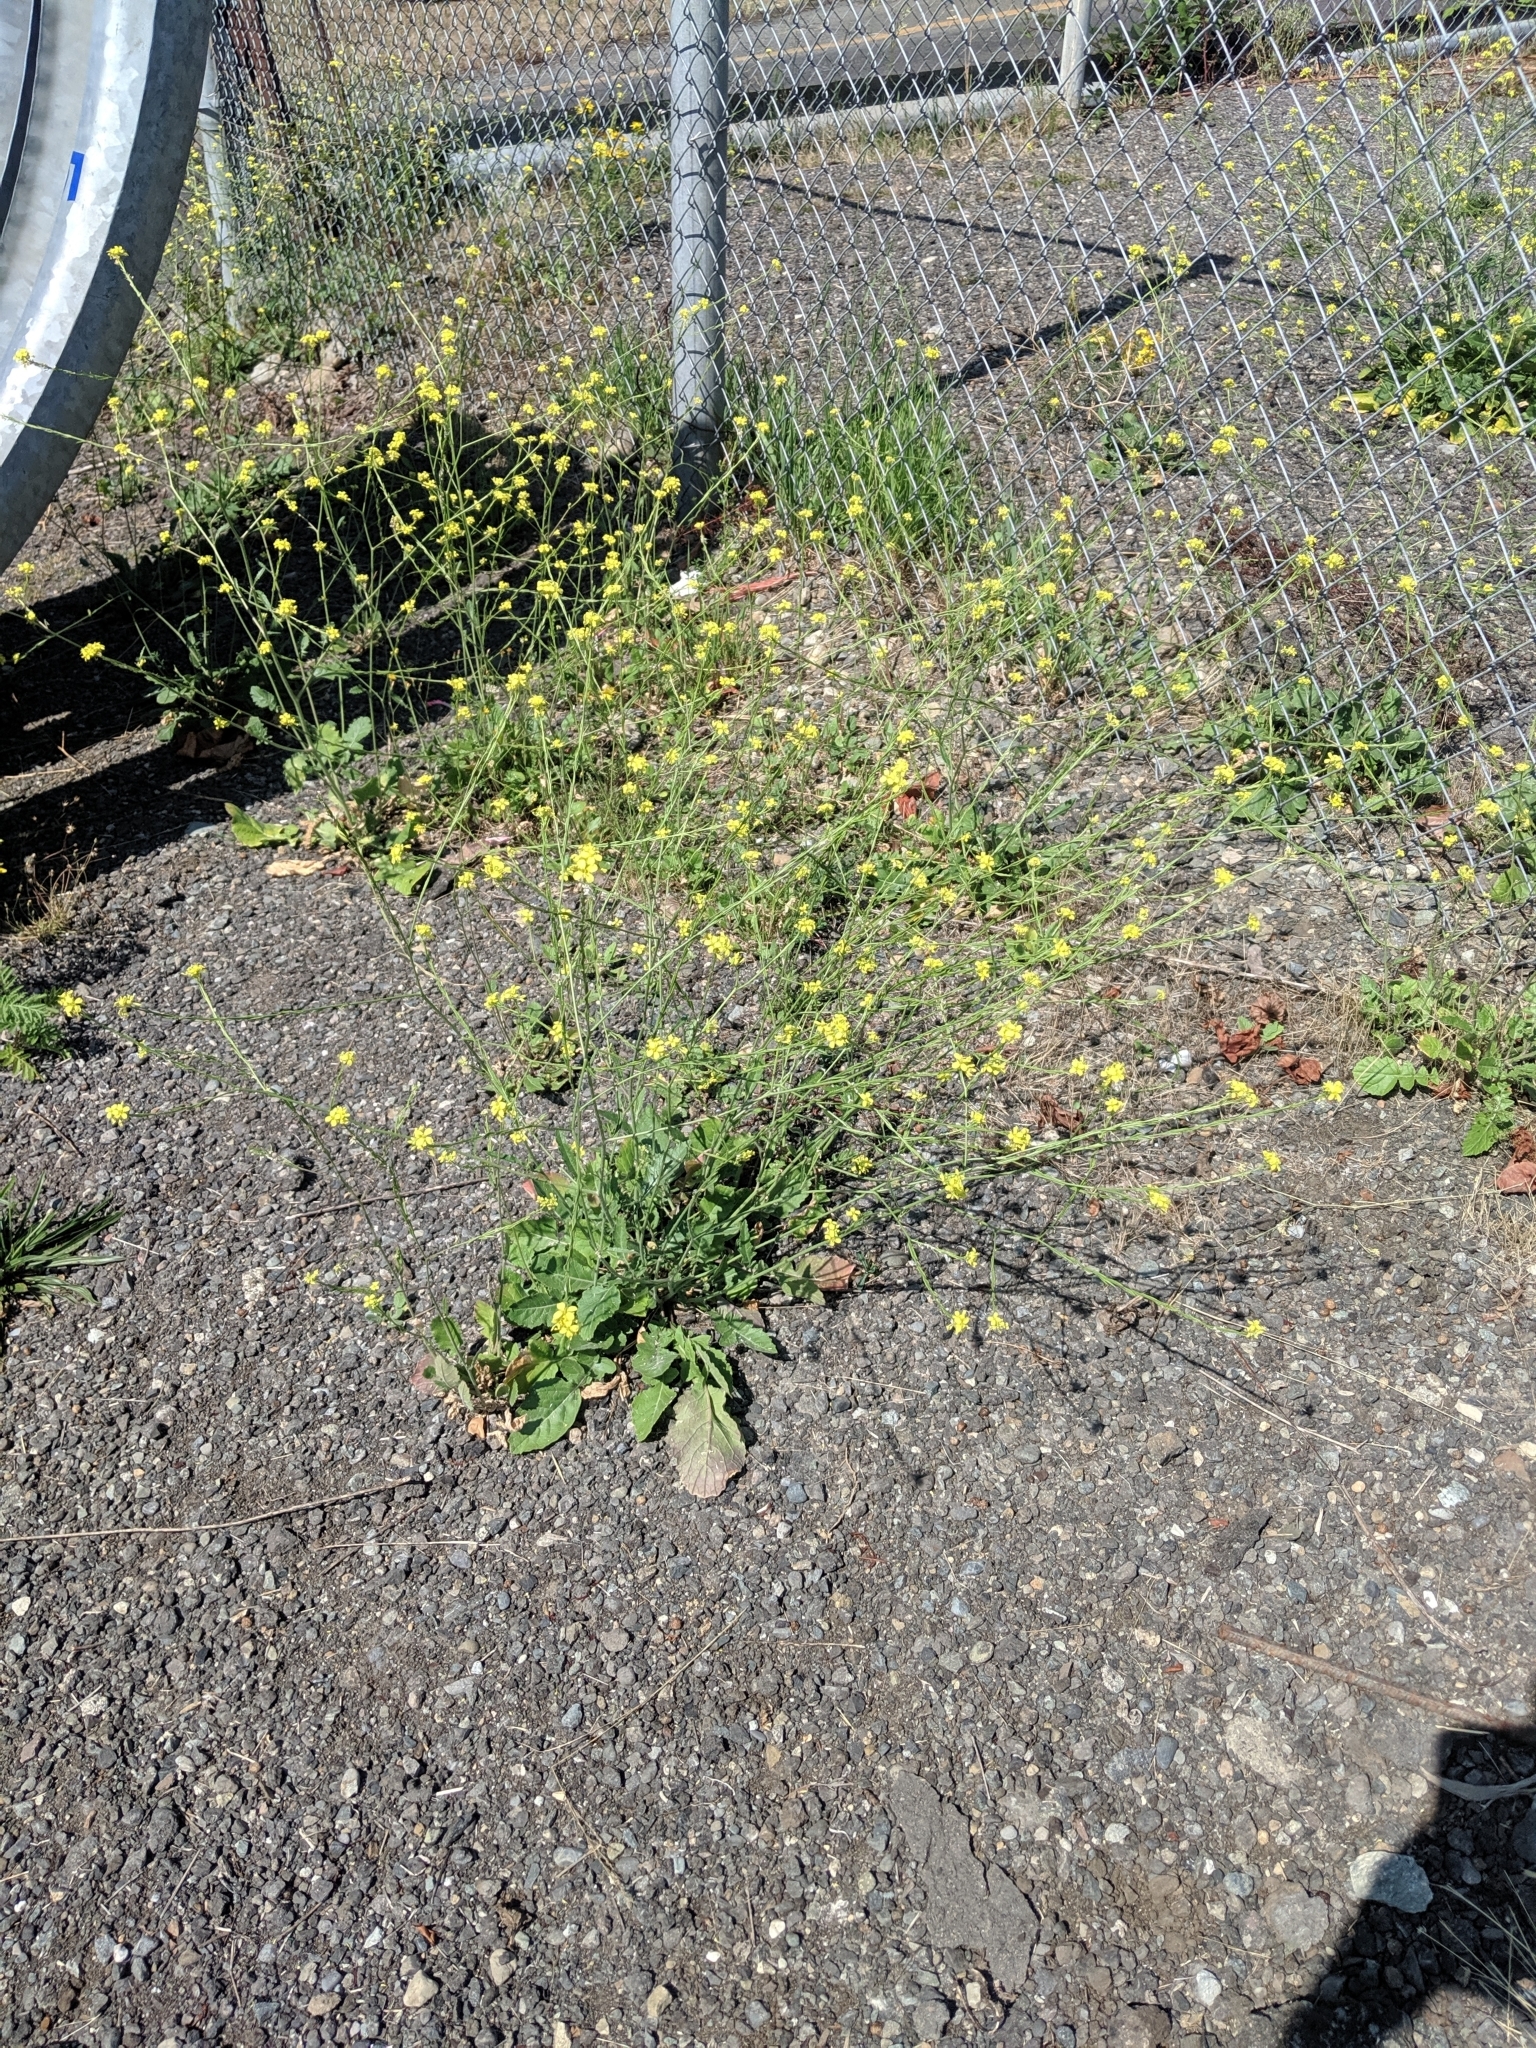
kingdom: Plantae
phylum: Tracheophyta
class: Magnoliopsida
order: Brassicales
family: Brassicaceae
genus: Hirschfeldia
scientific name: Hirschfeldia incana
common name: Hoary mustard
